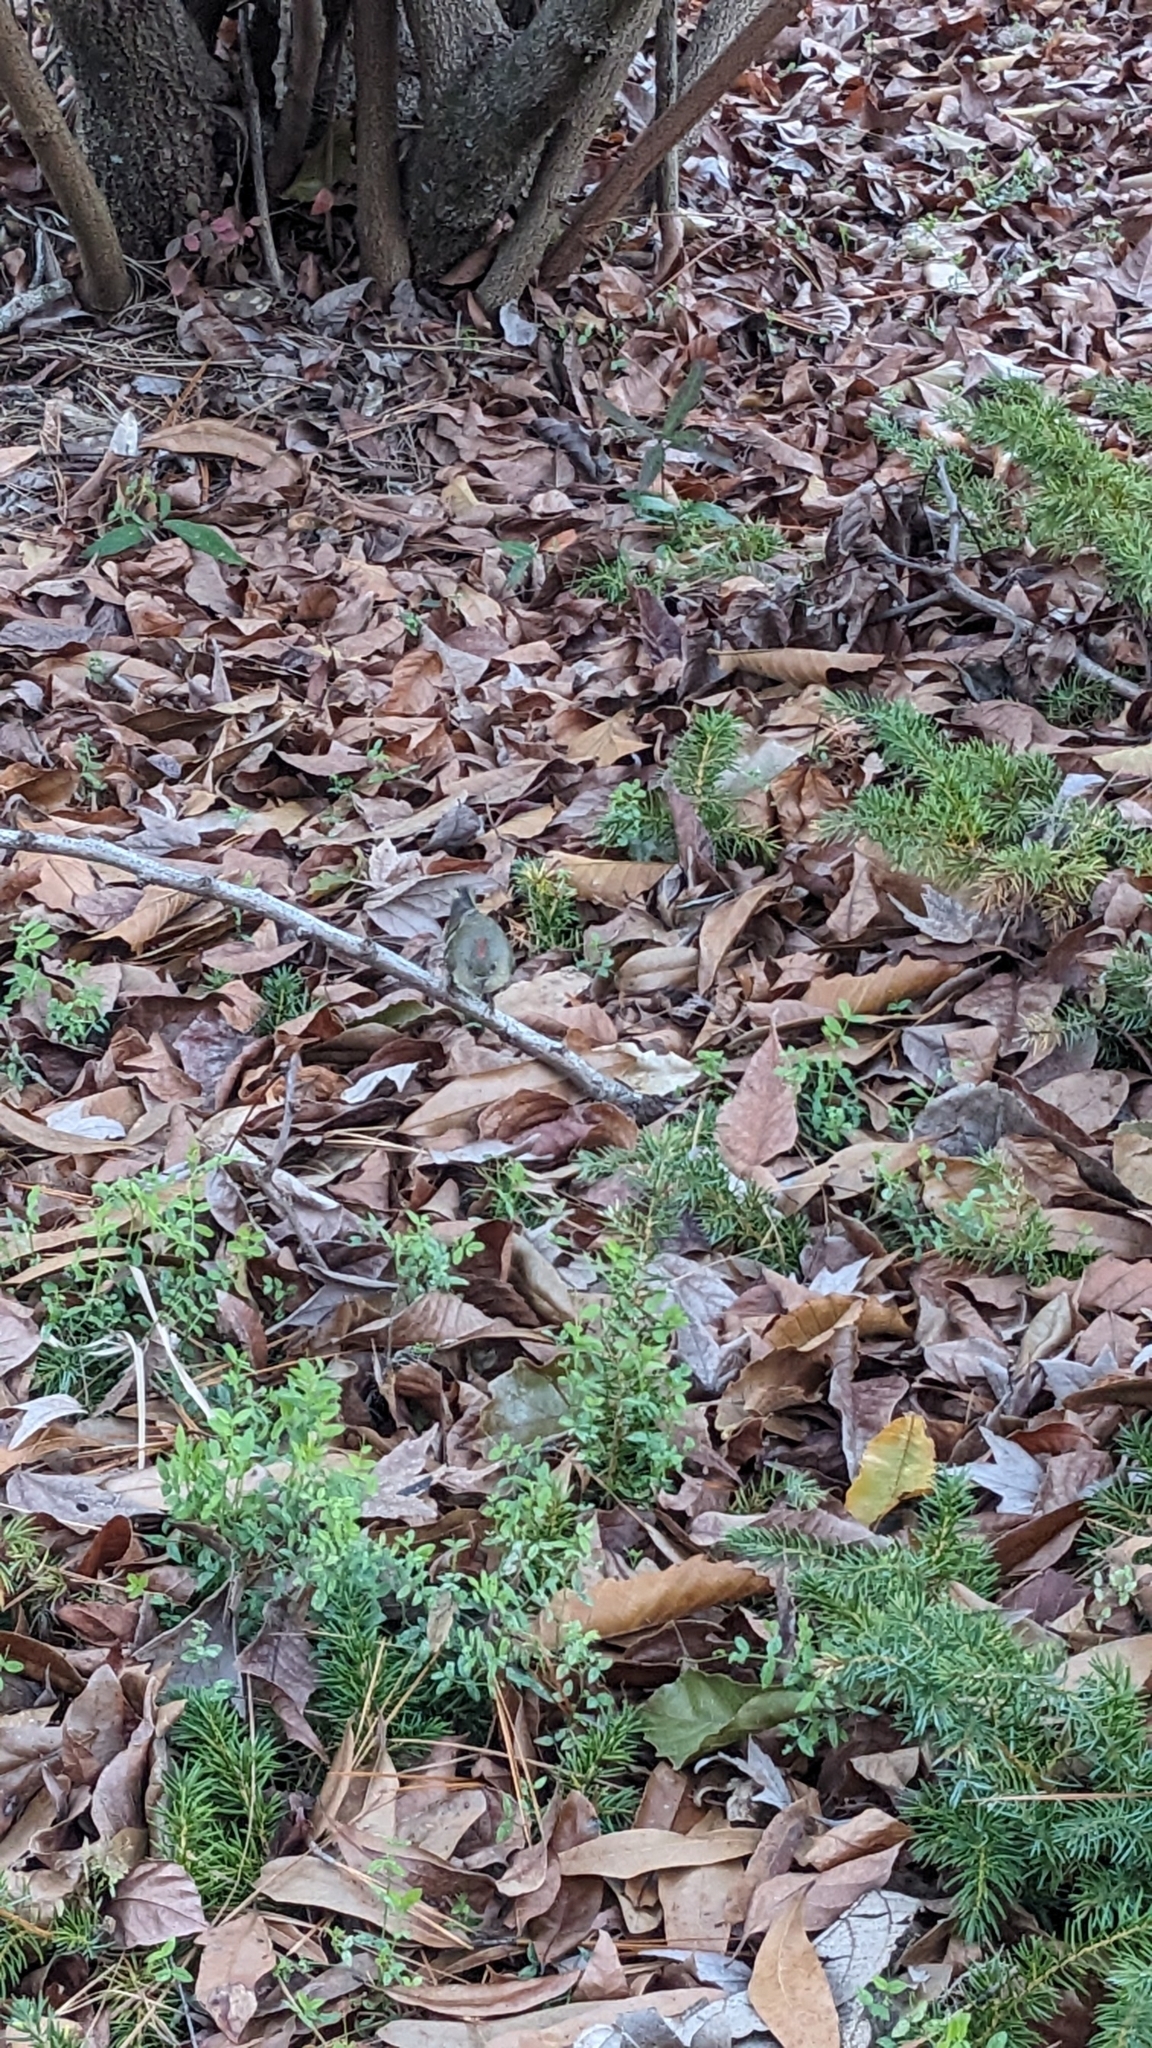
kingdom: Animalia
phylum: Chordata
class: Aves
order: Passeriformes
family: Regulidae
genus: Regulus
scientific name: Regulus calendula
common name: Ruby-crowned kinglet
